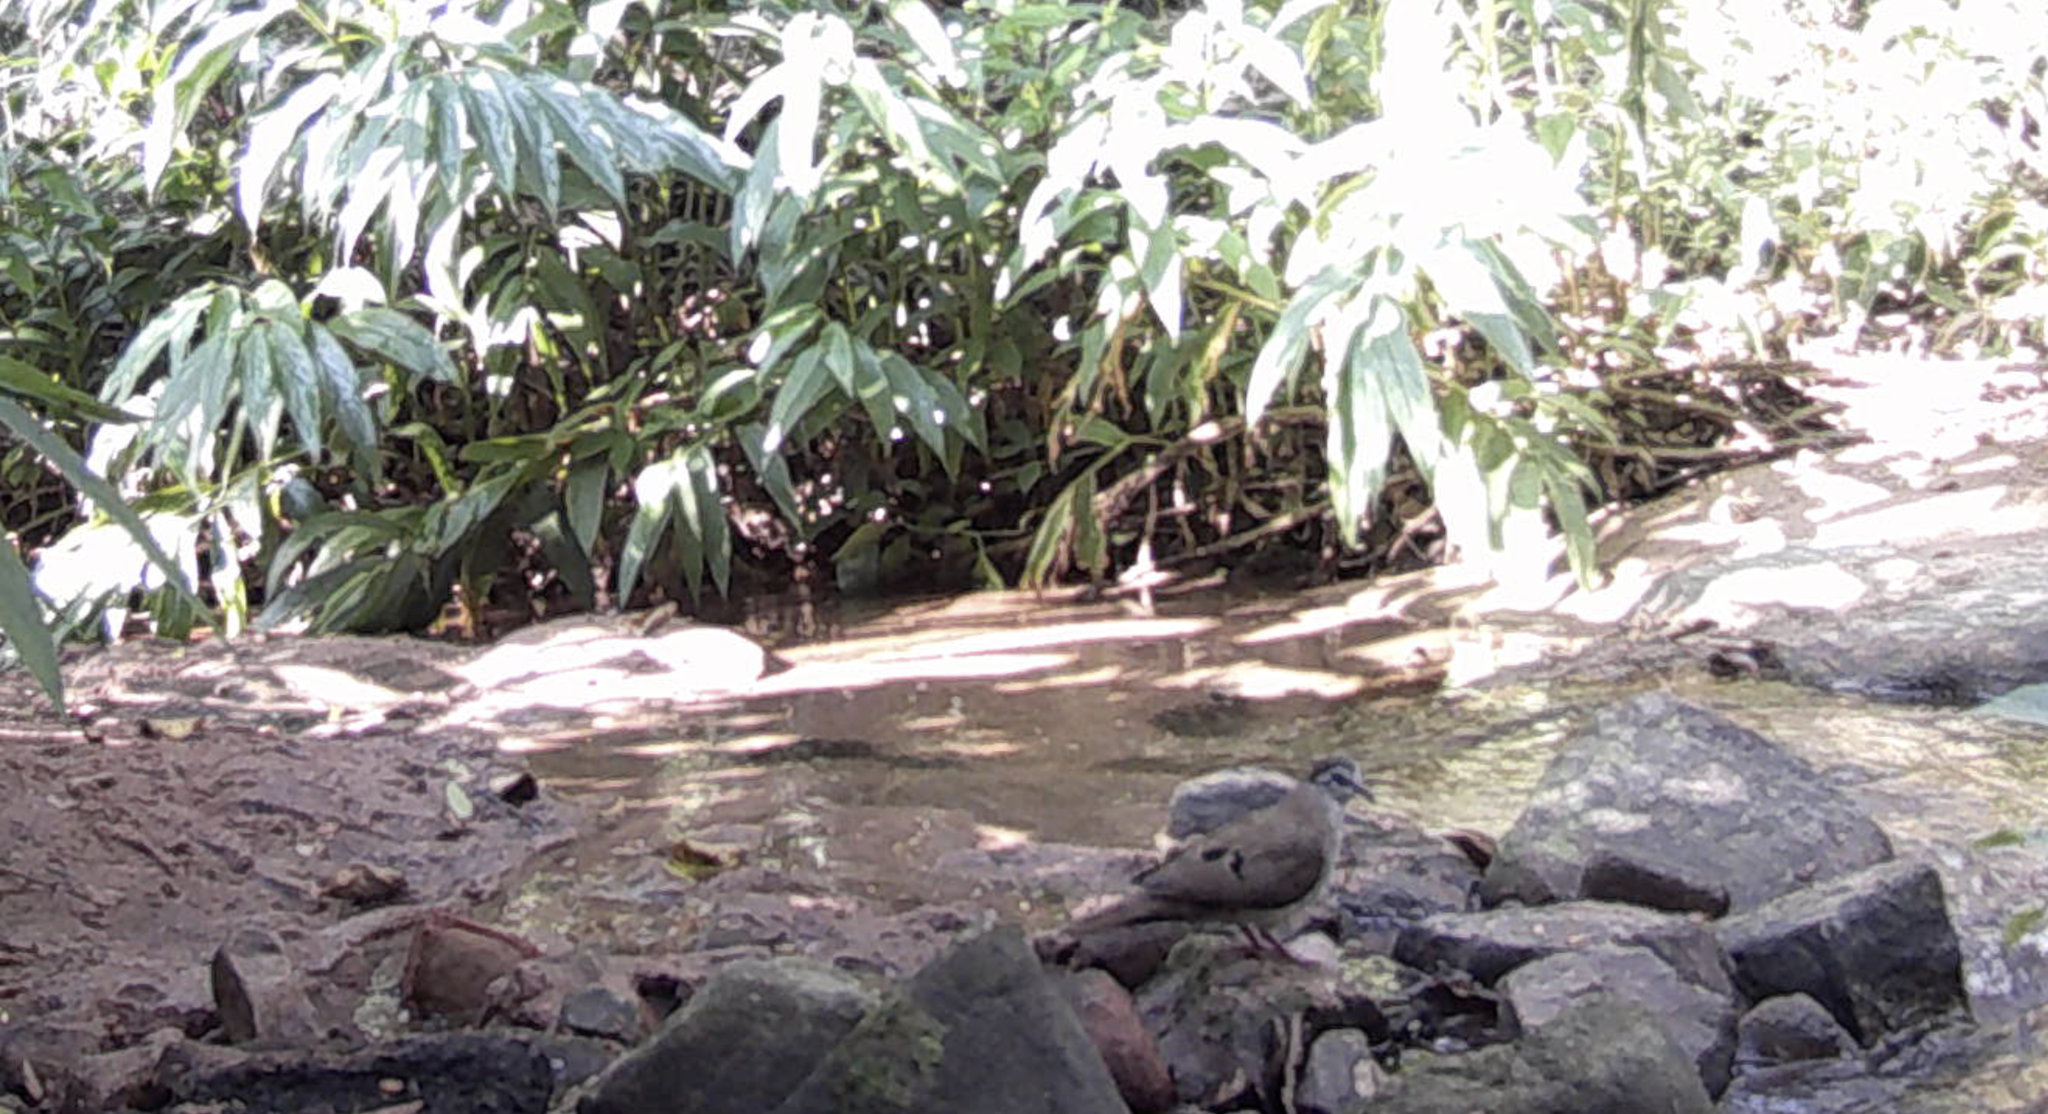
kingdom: Animalia
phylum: Chordata
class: Aves
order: Columbiformes
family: Columbidae
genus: Turtur
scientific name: Turtur tympanistria
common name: Tambourine dove
